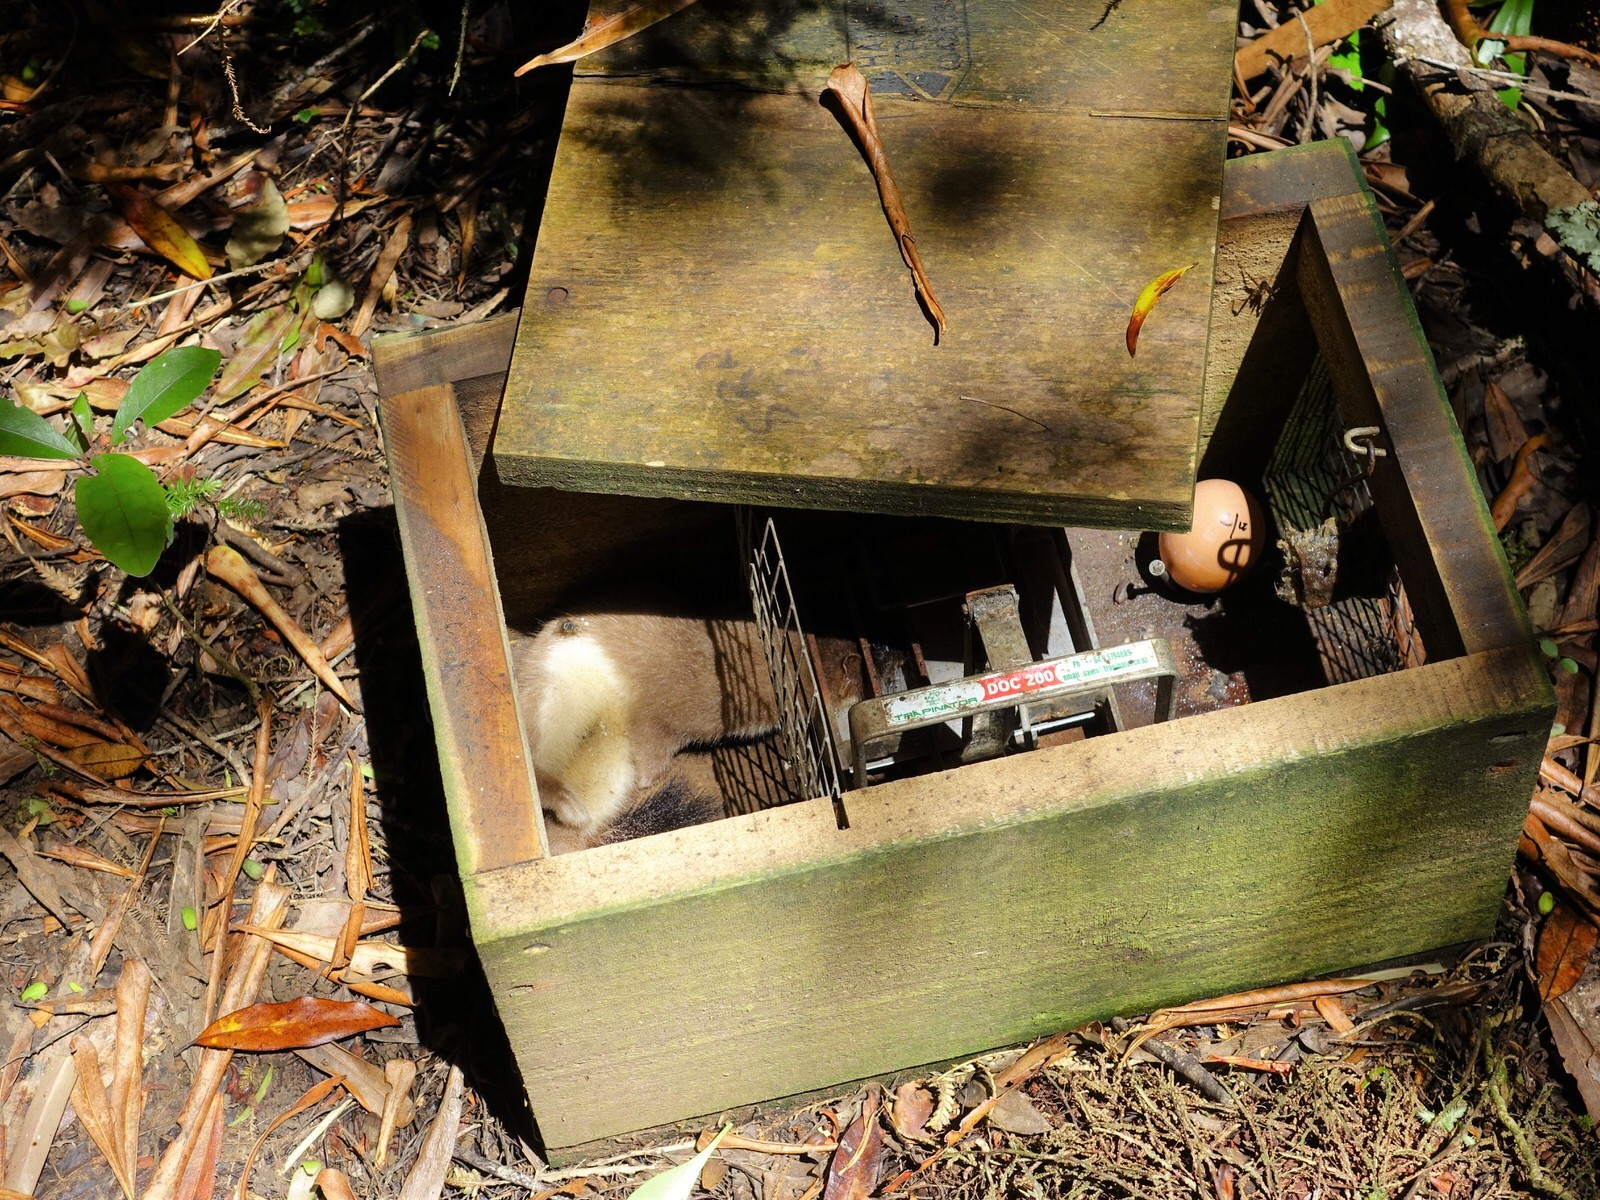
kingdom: Animalia
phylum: Chordata
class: Mammalia
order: Carnivora
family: Mustelidae
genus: Mustela
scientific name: Mustela erminea
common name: Stoat
